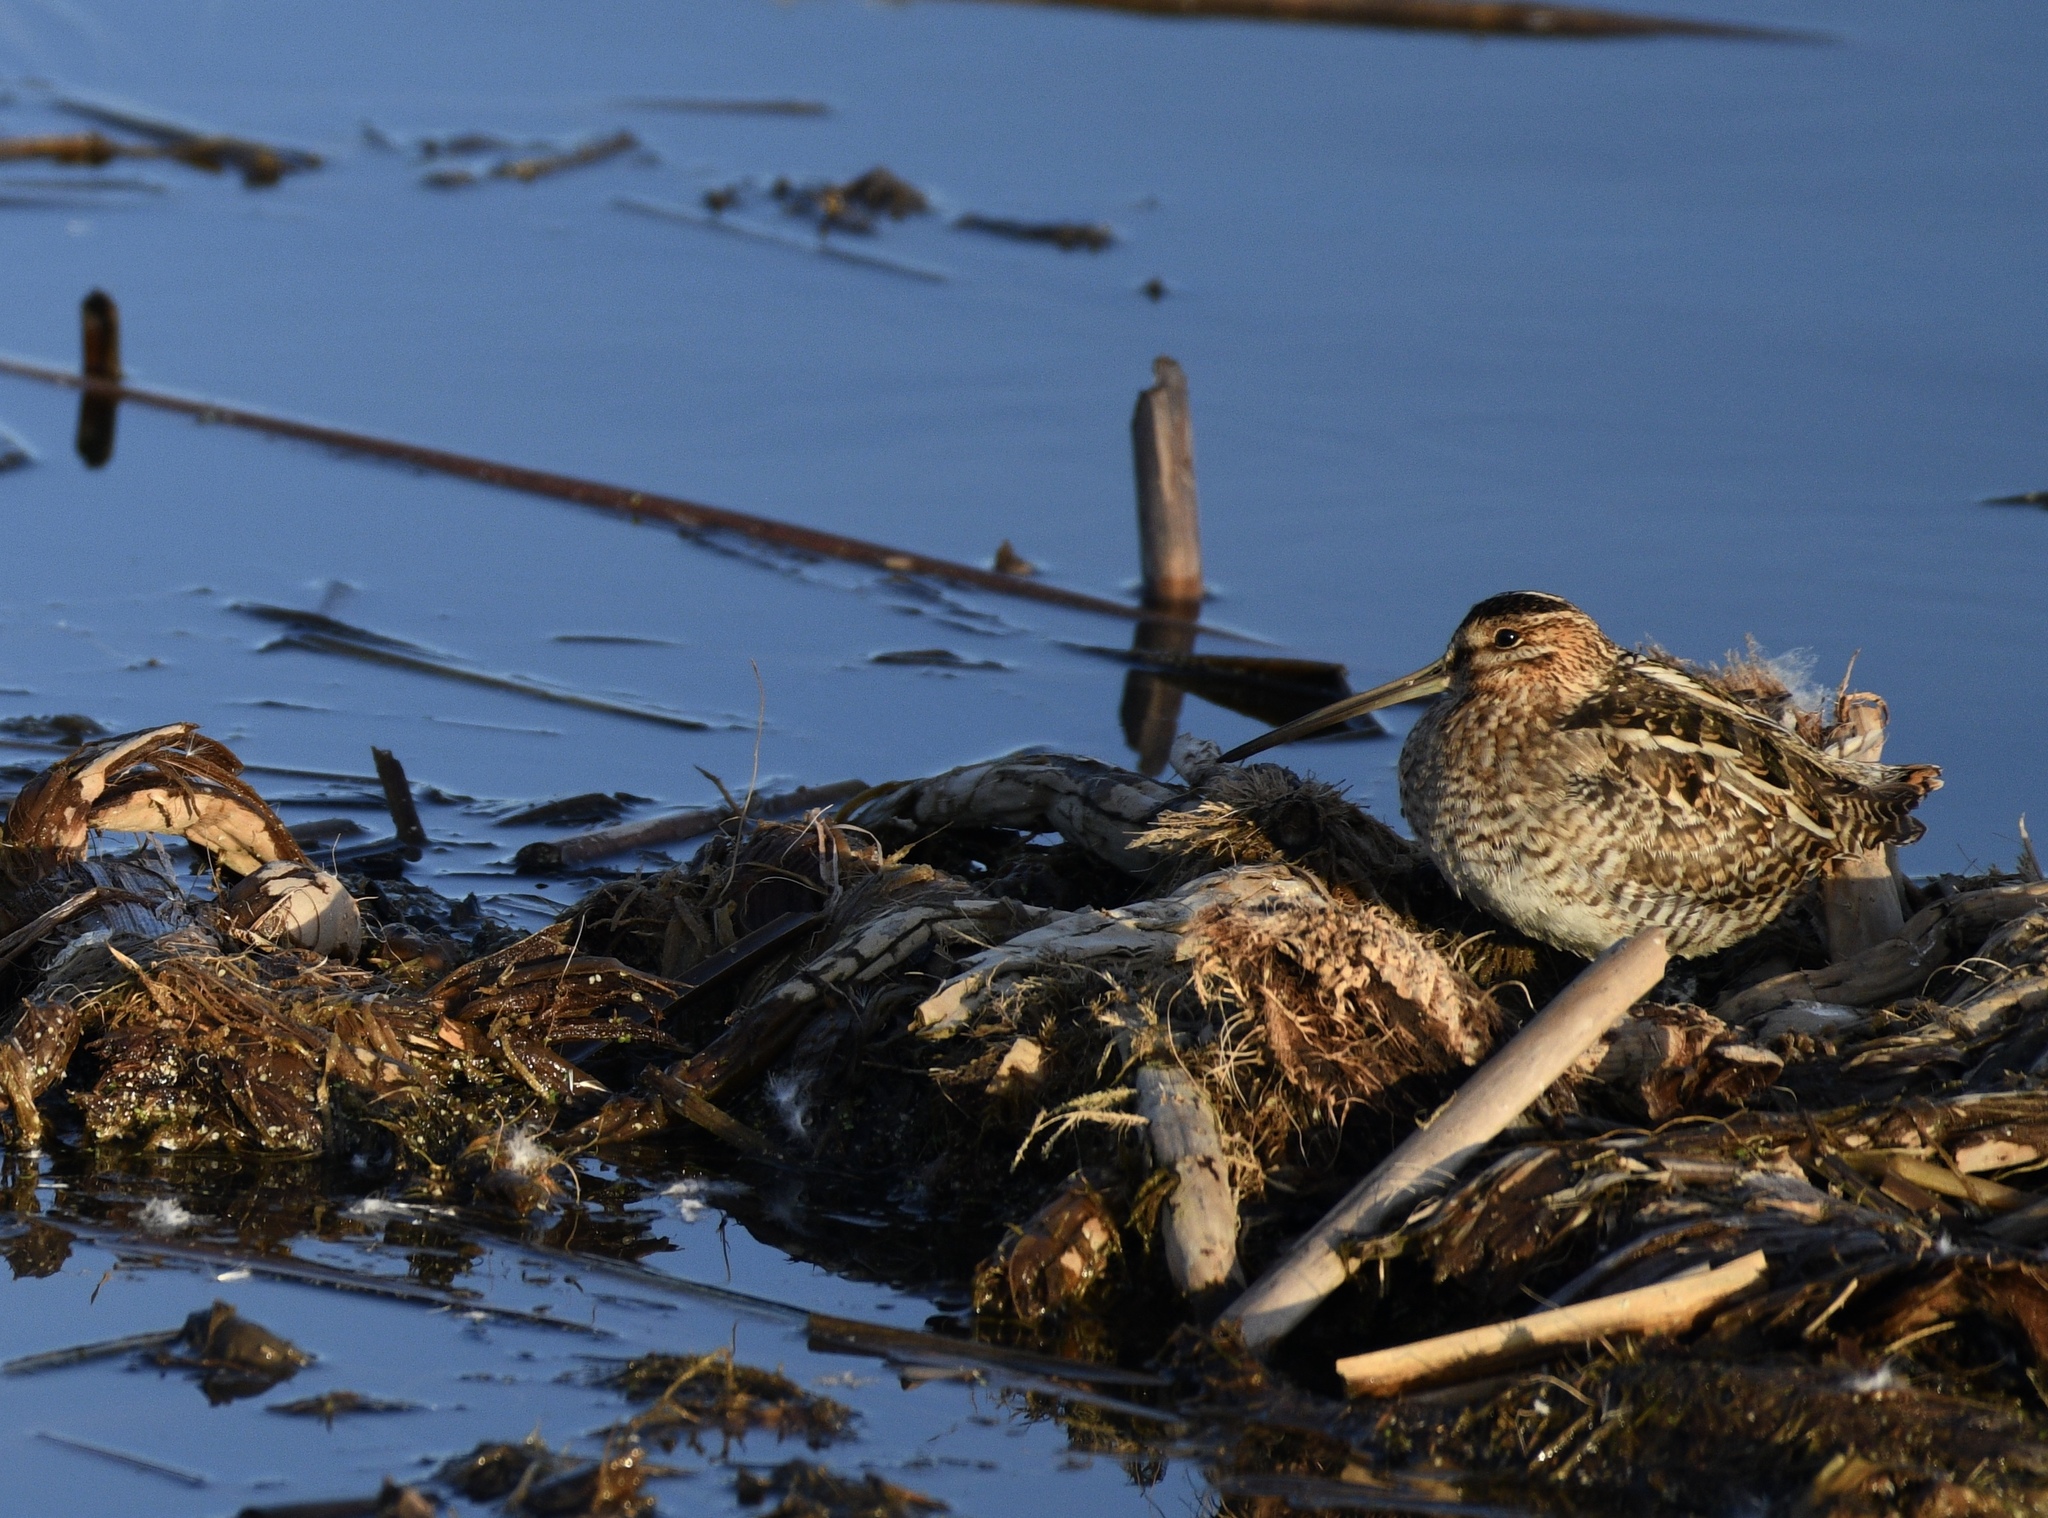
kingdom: Animalia
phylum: Chordata
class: Aves
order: Charadriiformes
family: Scolopacidae
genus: Gallinago
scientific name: Gallinago delicata
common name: Wilson's snipe
